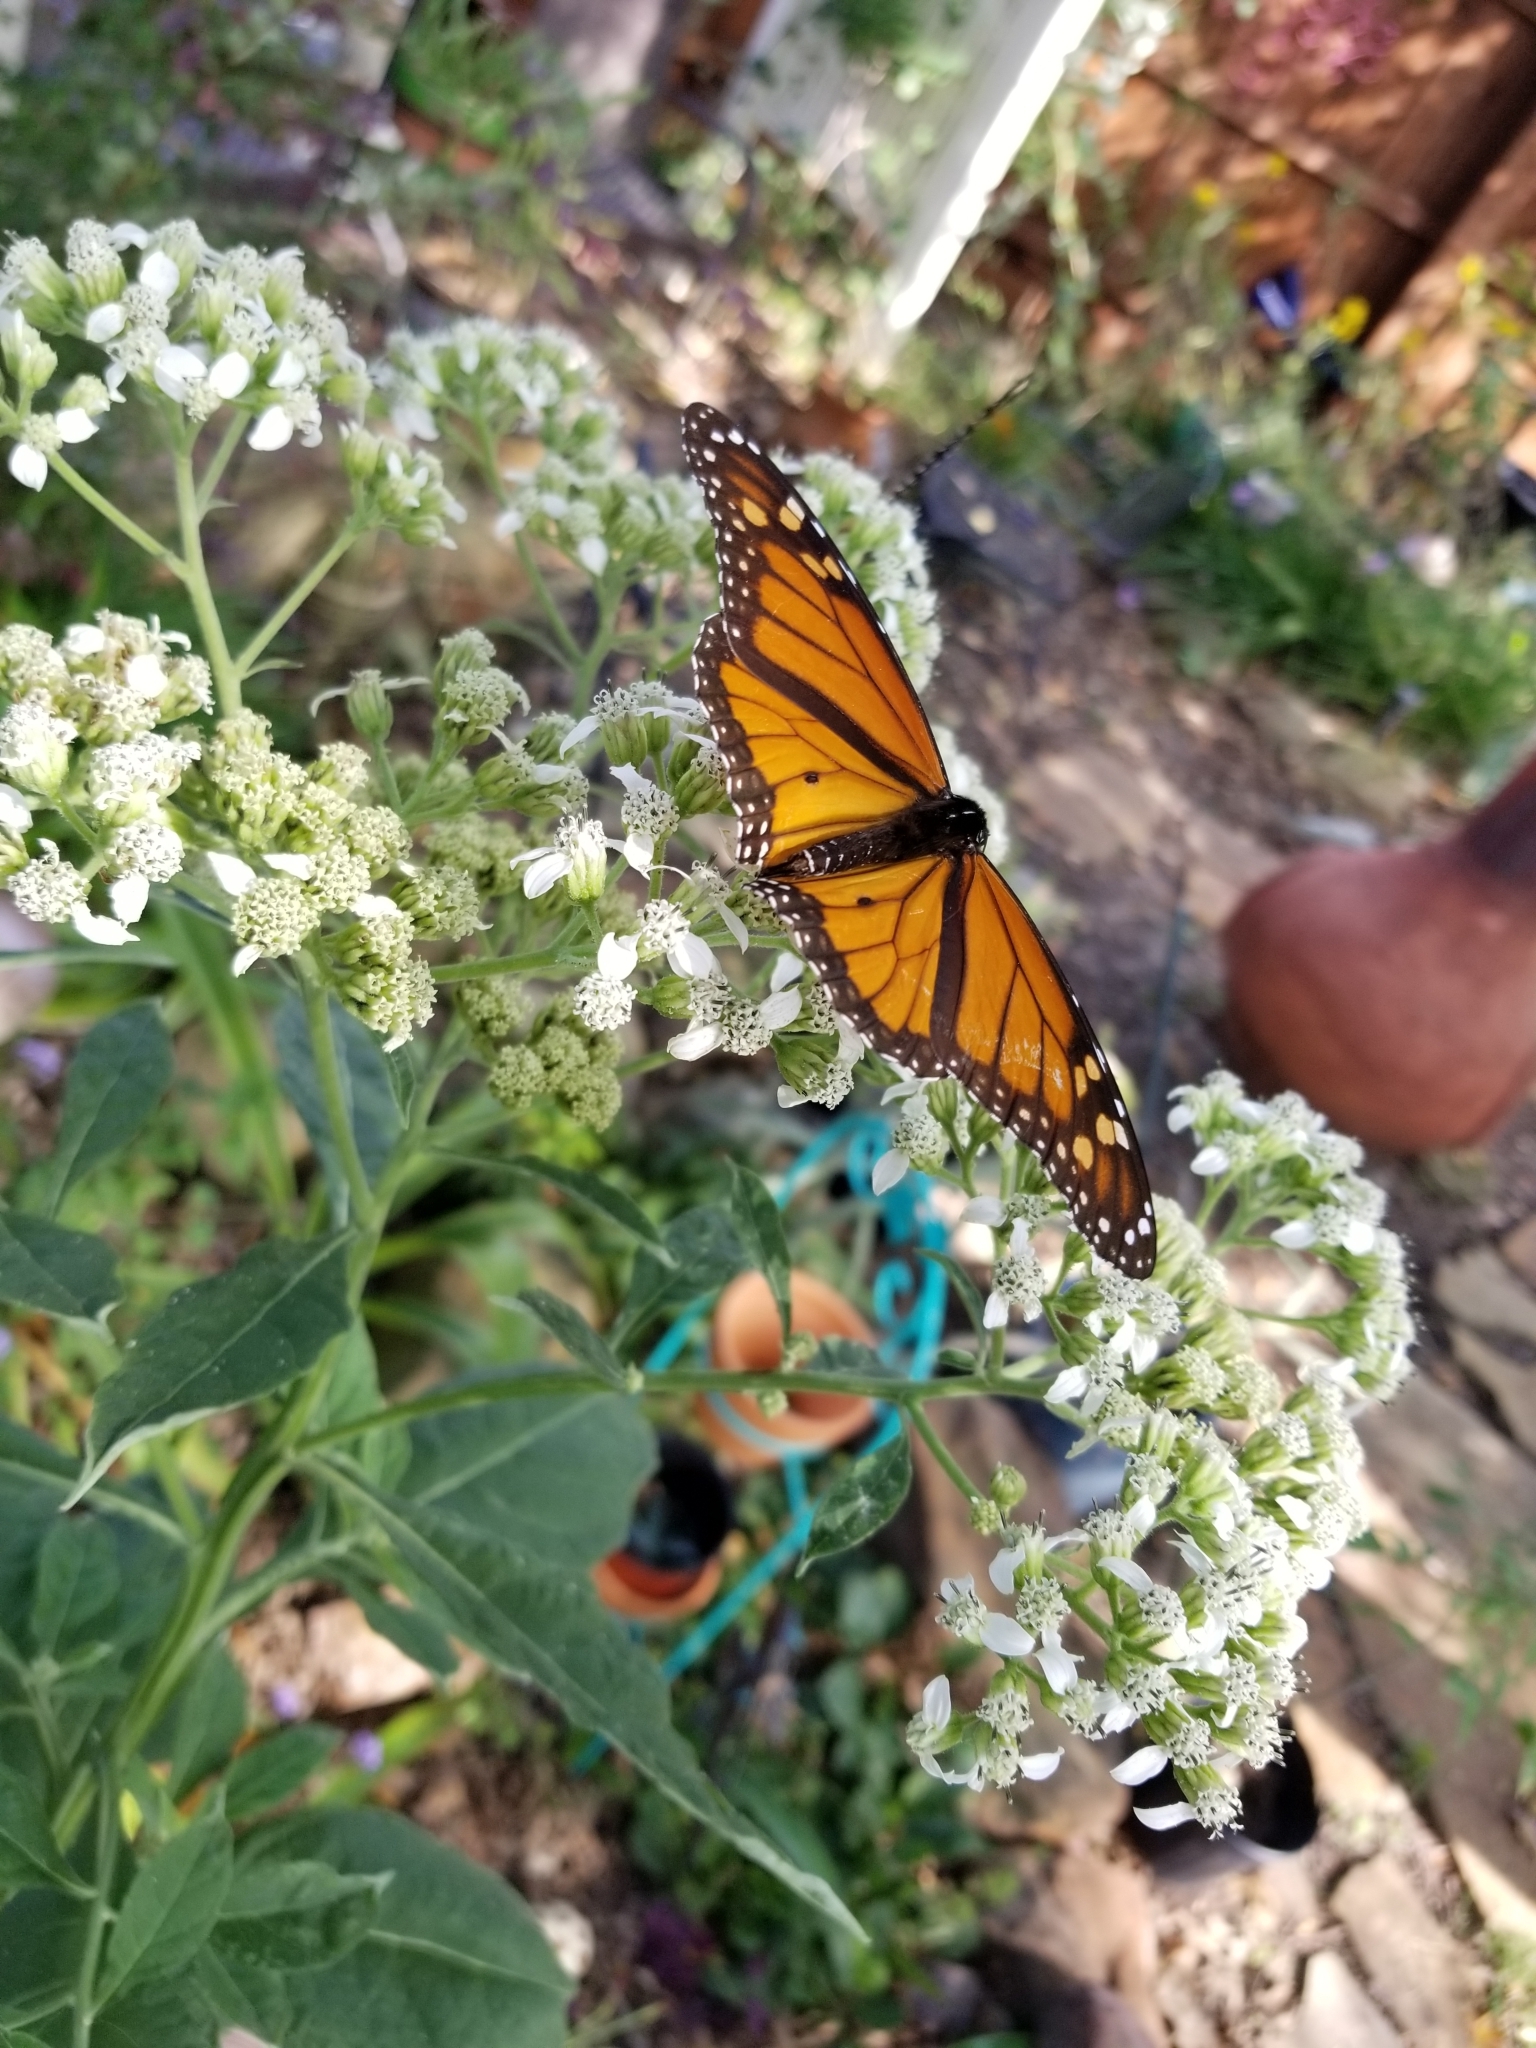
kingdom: Animalia
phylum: Arthropoda
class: Insecta
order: Lepidoptera
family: Nymphalidae
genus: Danaus
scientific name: Danaus plexippus
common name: Monarch
